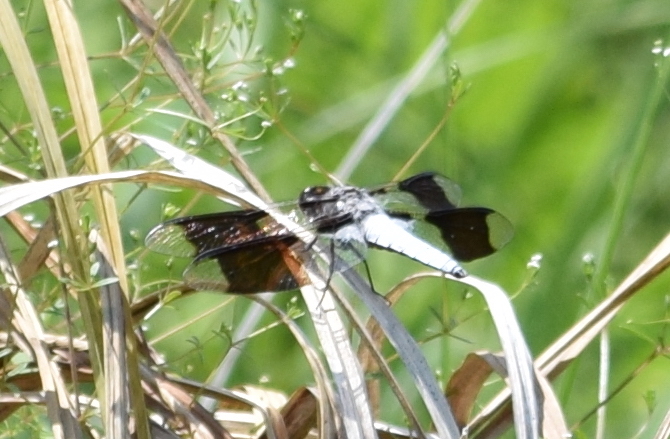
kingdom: Animalia
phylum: Arthropoda
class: Insecta
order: Odonata
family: Libellulidae
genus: Plathemis
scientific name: Plathemis lydia
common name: Common whitetail
